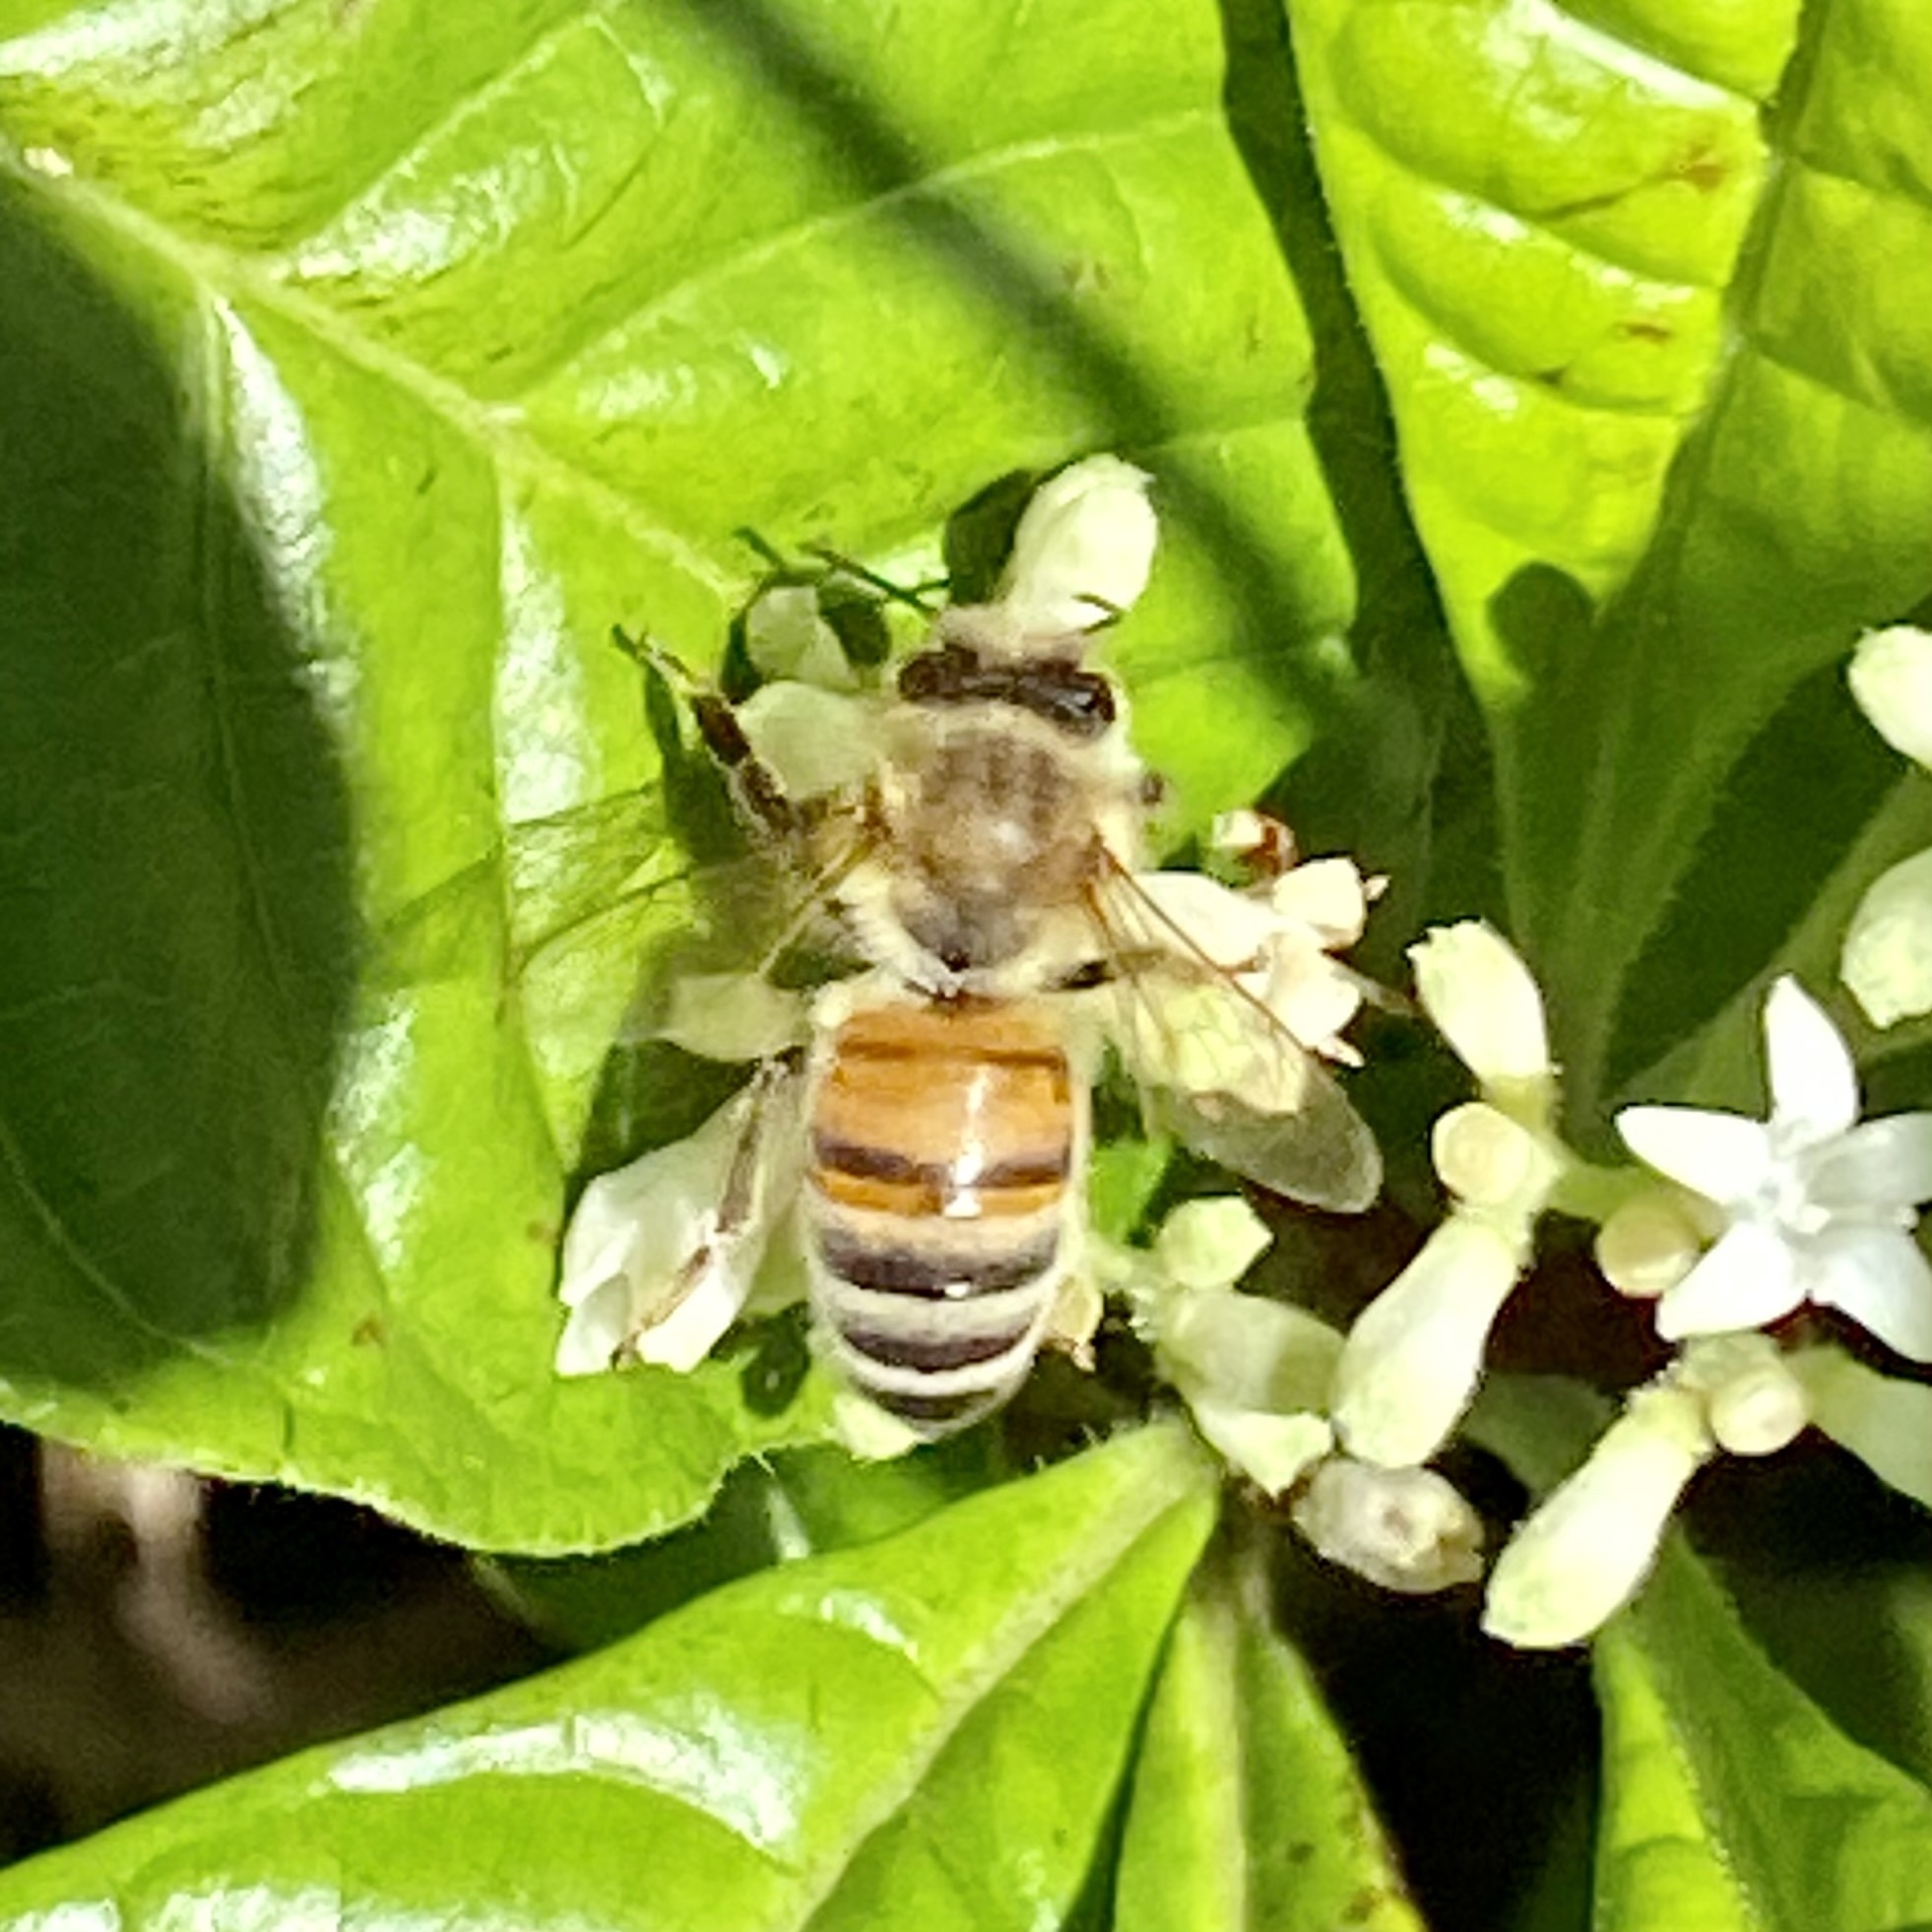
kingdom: Animalia
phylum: Arthropoda
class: Insecta
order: Hymenoptera
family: Apidae
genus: Apis
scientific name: Apis mellifera
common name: Honey bee
